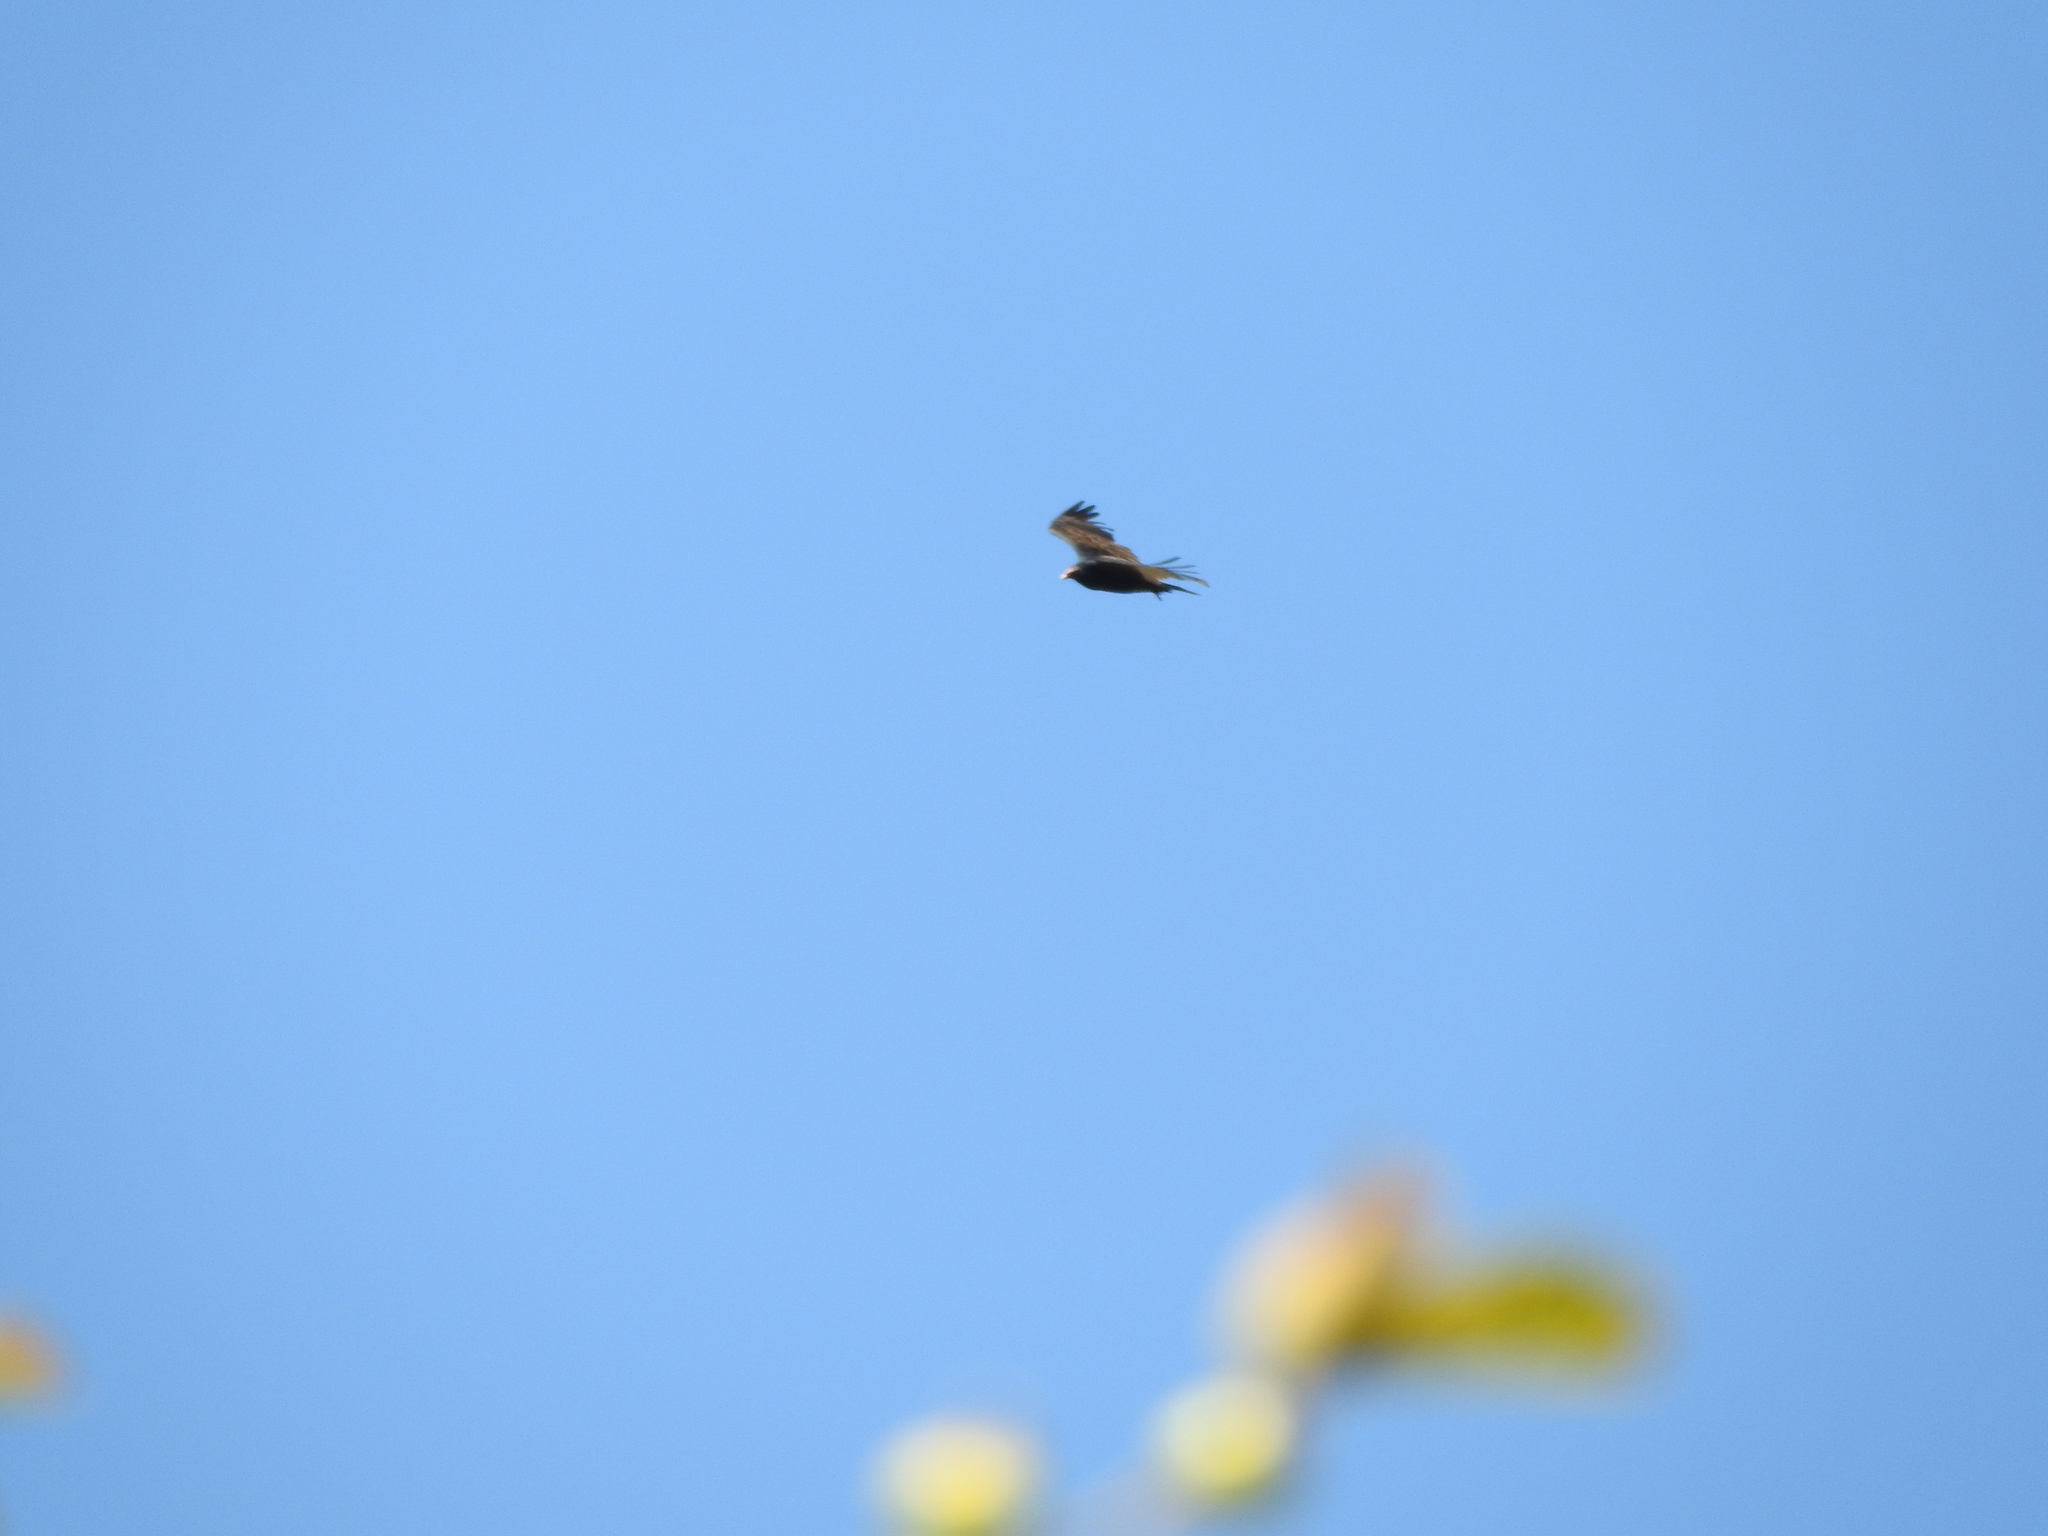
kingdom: Animalia
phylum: Chordata
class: Aves
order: Accipitriformes
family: Cathartidae
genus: Cathartes
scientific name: Cathartes aura
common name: Turkey vulture
